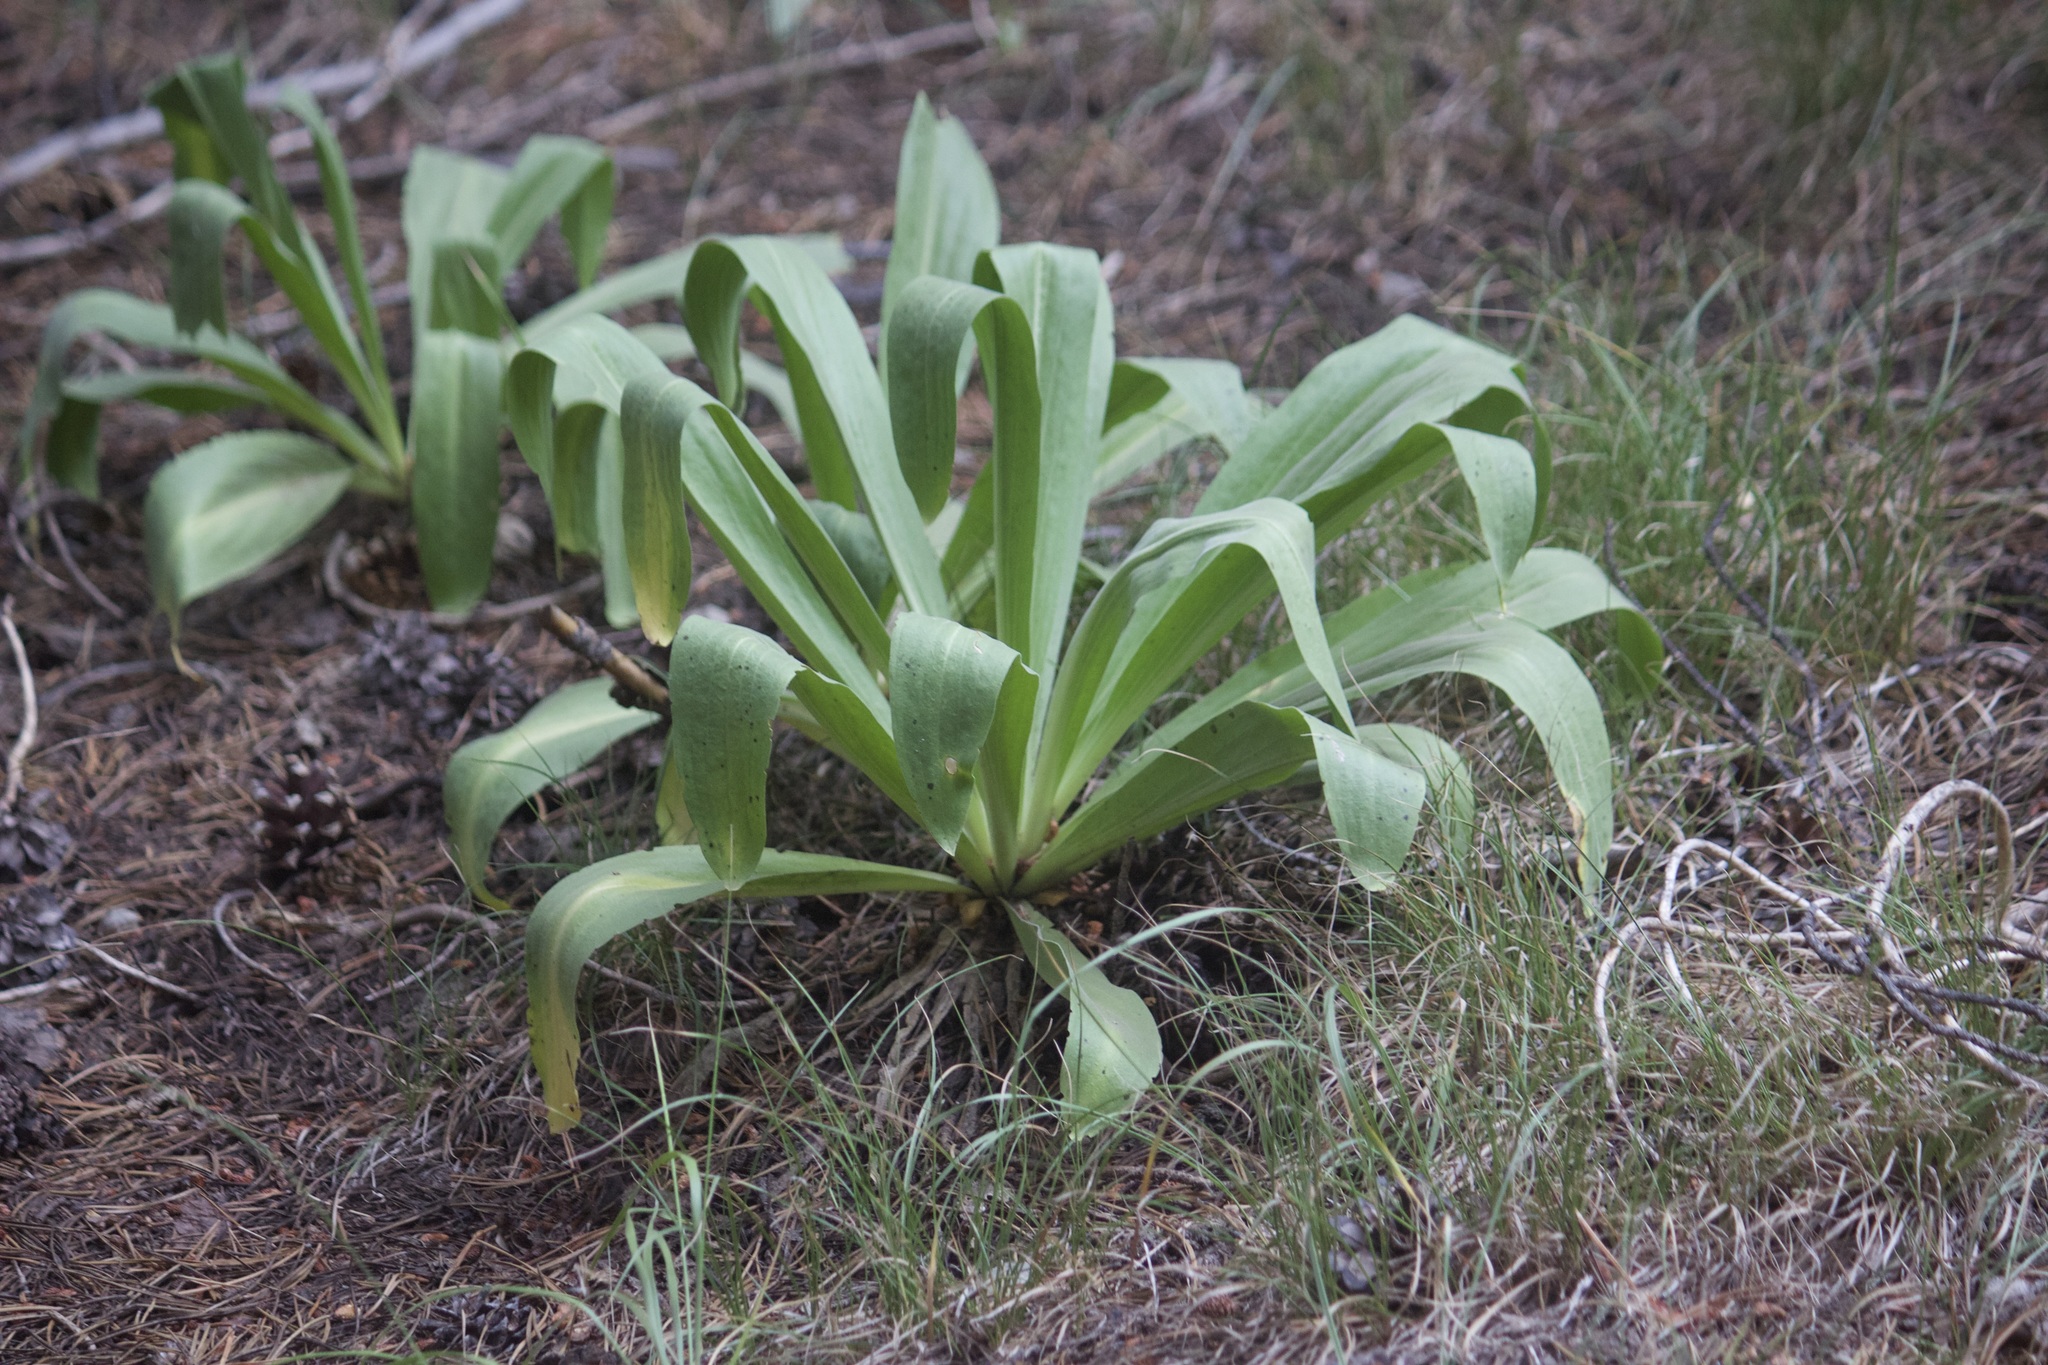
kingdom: Plantae
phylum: Tracheophyta
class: Magnoliopsida
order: Gentianales
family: Gentianaceae
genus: Frasera
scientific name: Frasera speciosa
